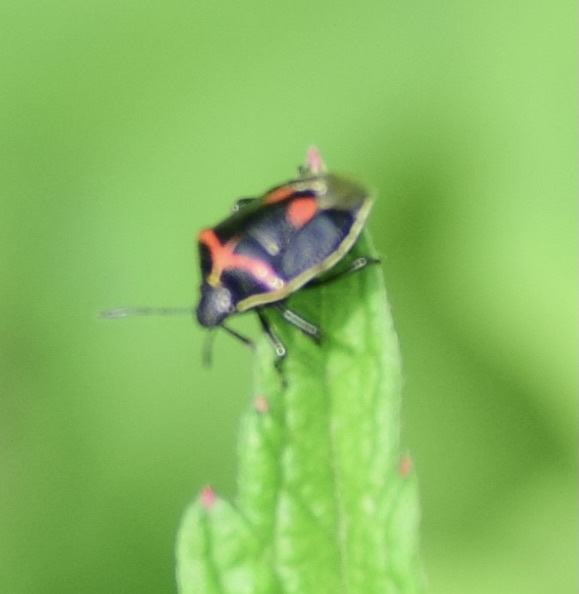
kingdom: Animalia
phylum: Arthropoda
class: Insecta
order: Hemiptera
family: Pentatomidae
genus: Cosmopepla
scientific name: Cosmopepla lintneriana
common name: Twice-stabbed stink bug
